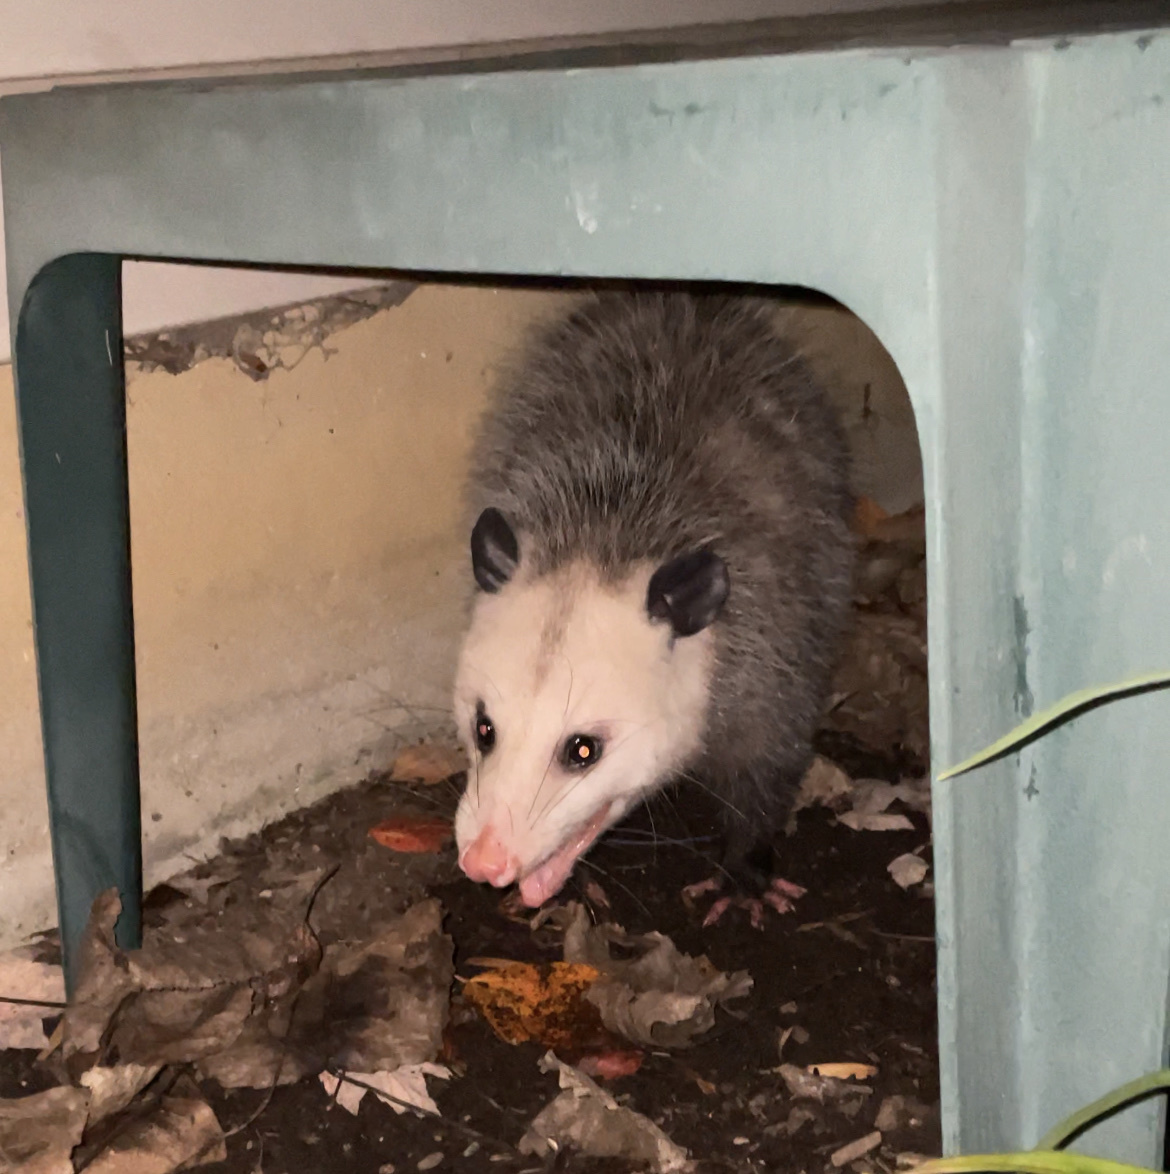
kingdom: Animalia
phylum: Chordata
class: Mammalia
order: Didelphimorphia
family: Didelphidae
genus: Didelphis
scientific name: Didelphis virginiana
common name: Virginia opossum
